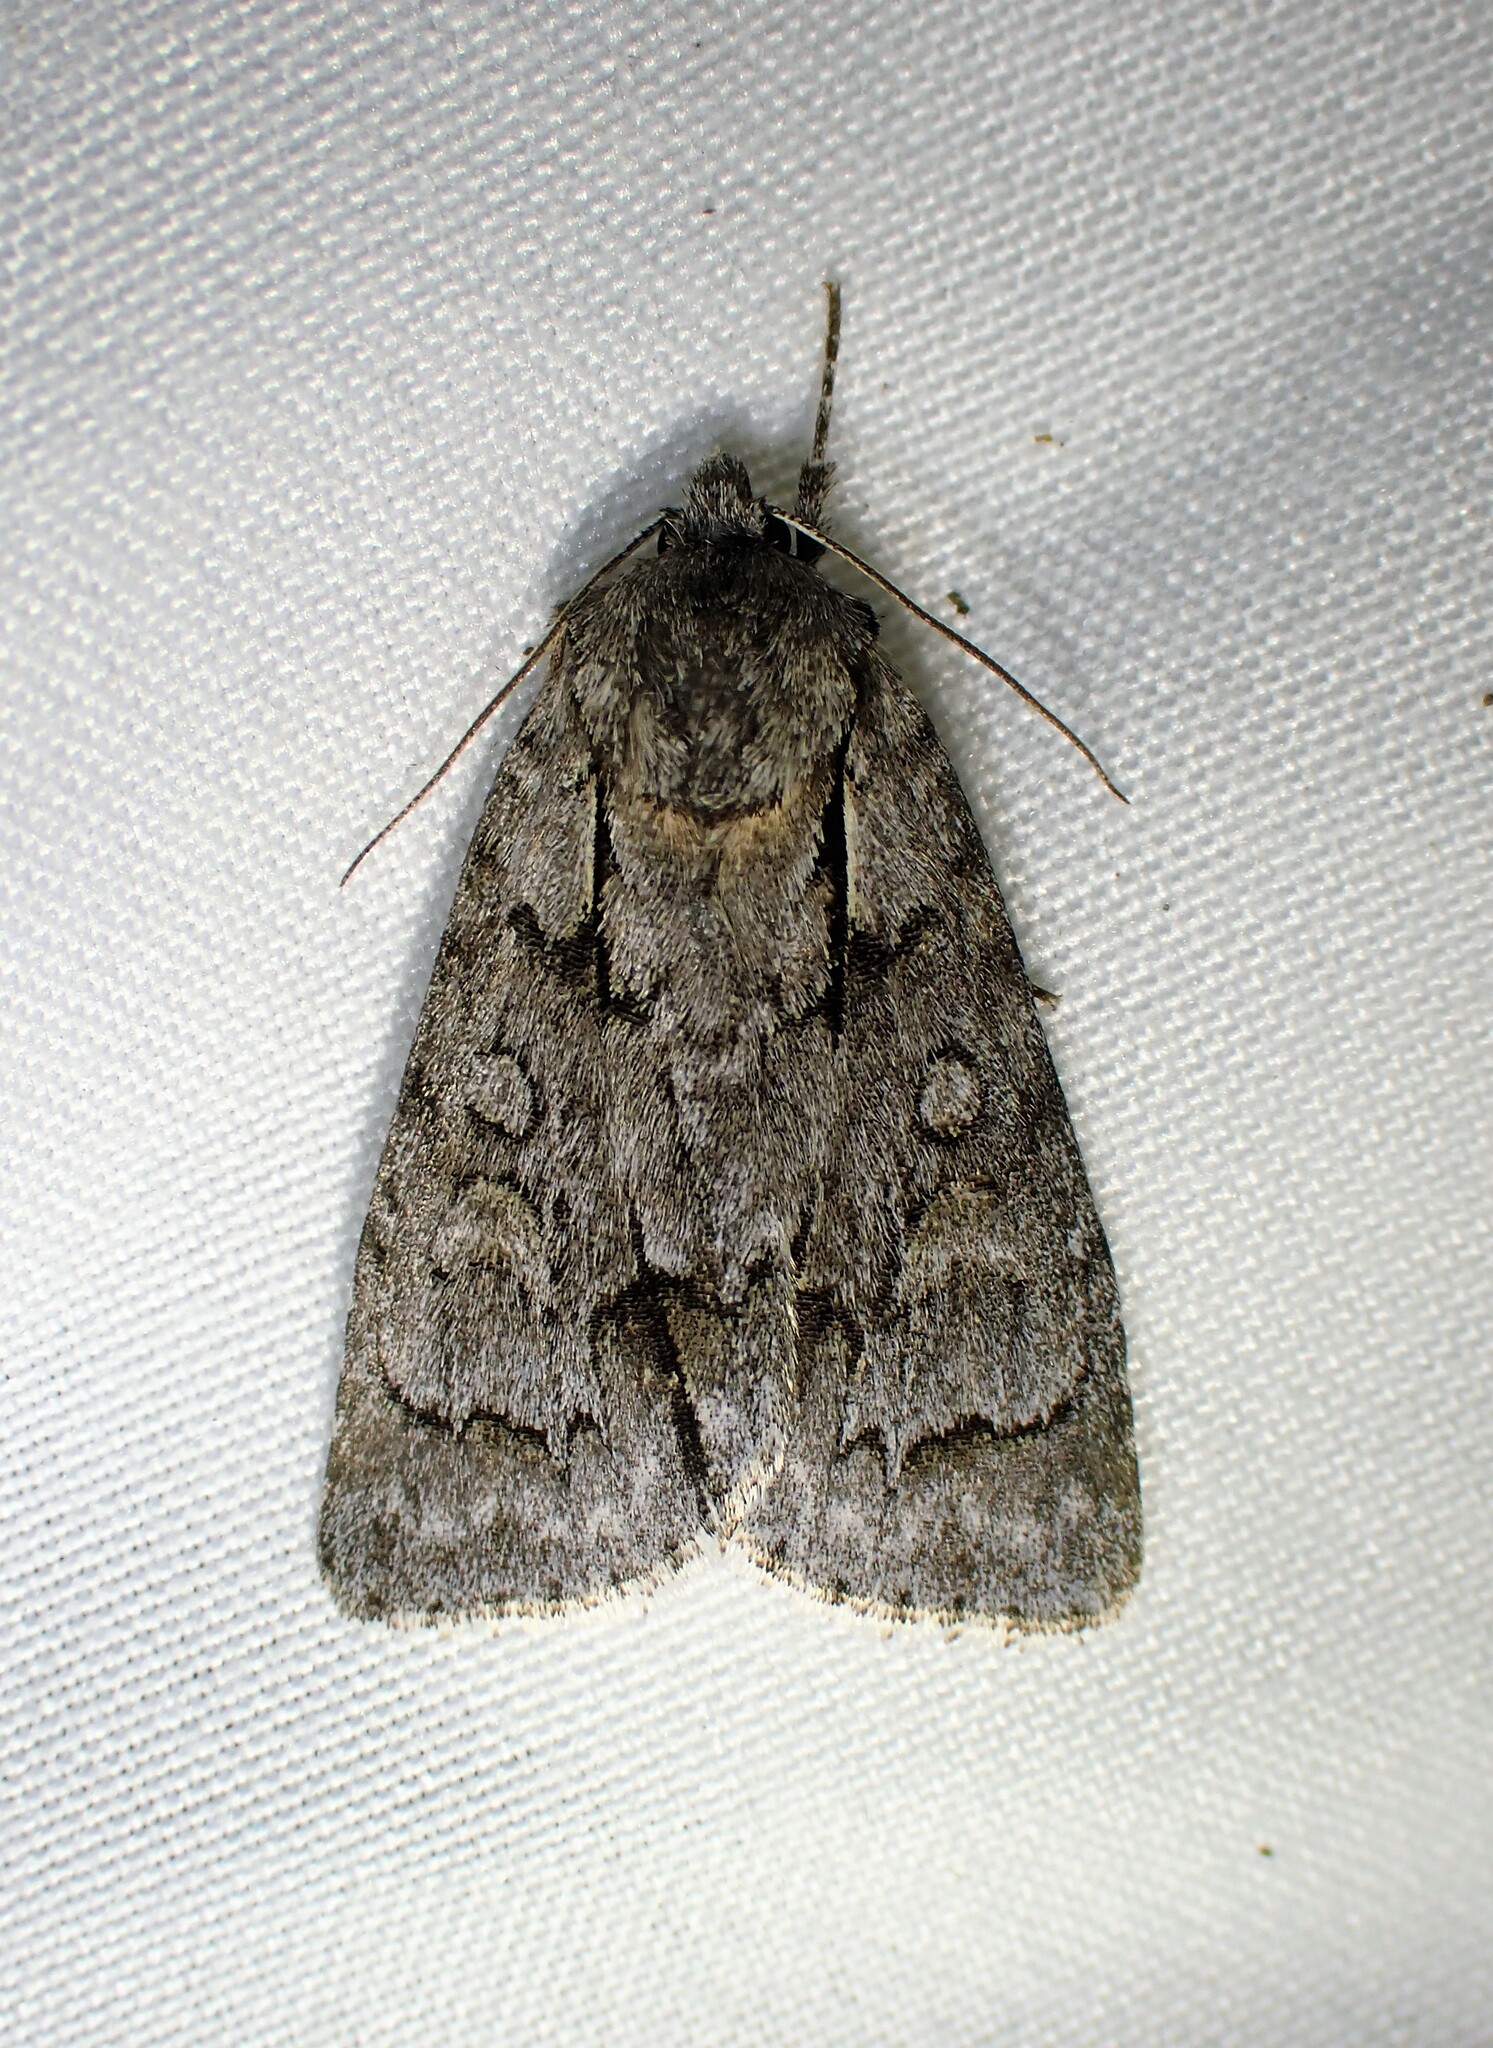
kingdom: Animalia
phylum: Arthropoda
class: Insecta
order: Lepidoptera
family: Noctuidae
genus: Acronicta
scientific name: Acronicta grisea
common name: Gray dagger
